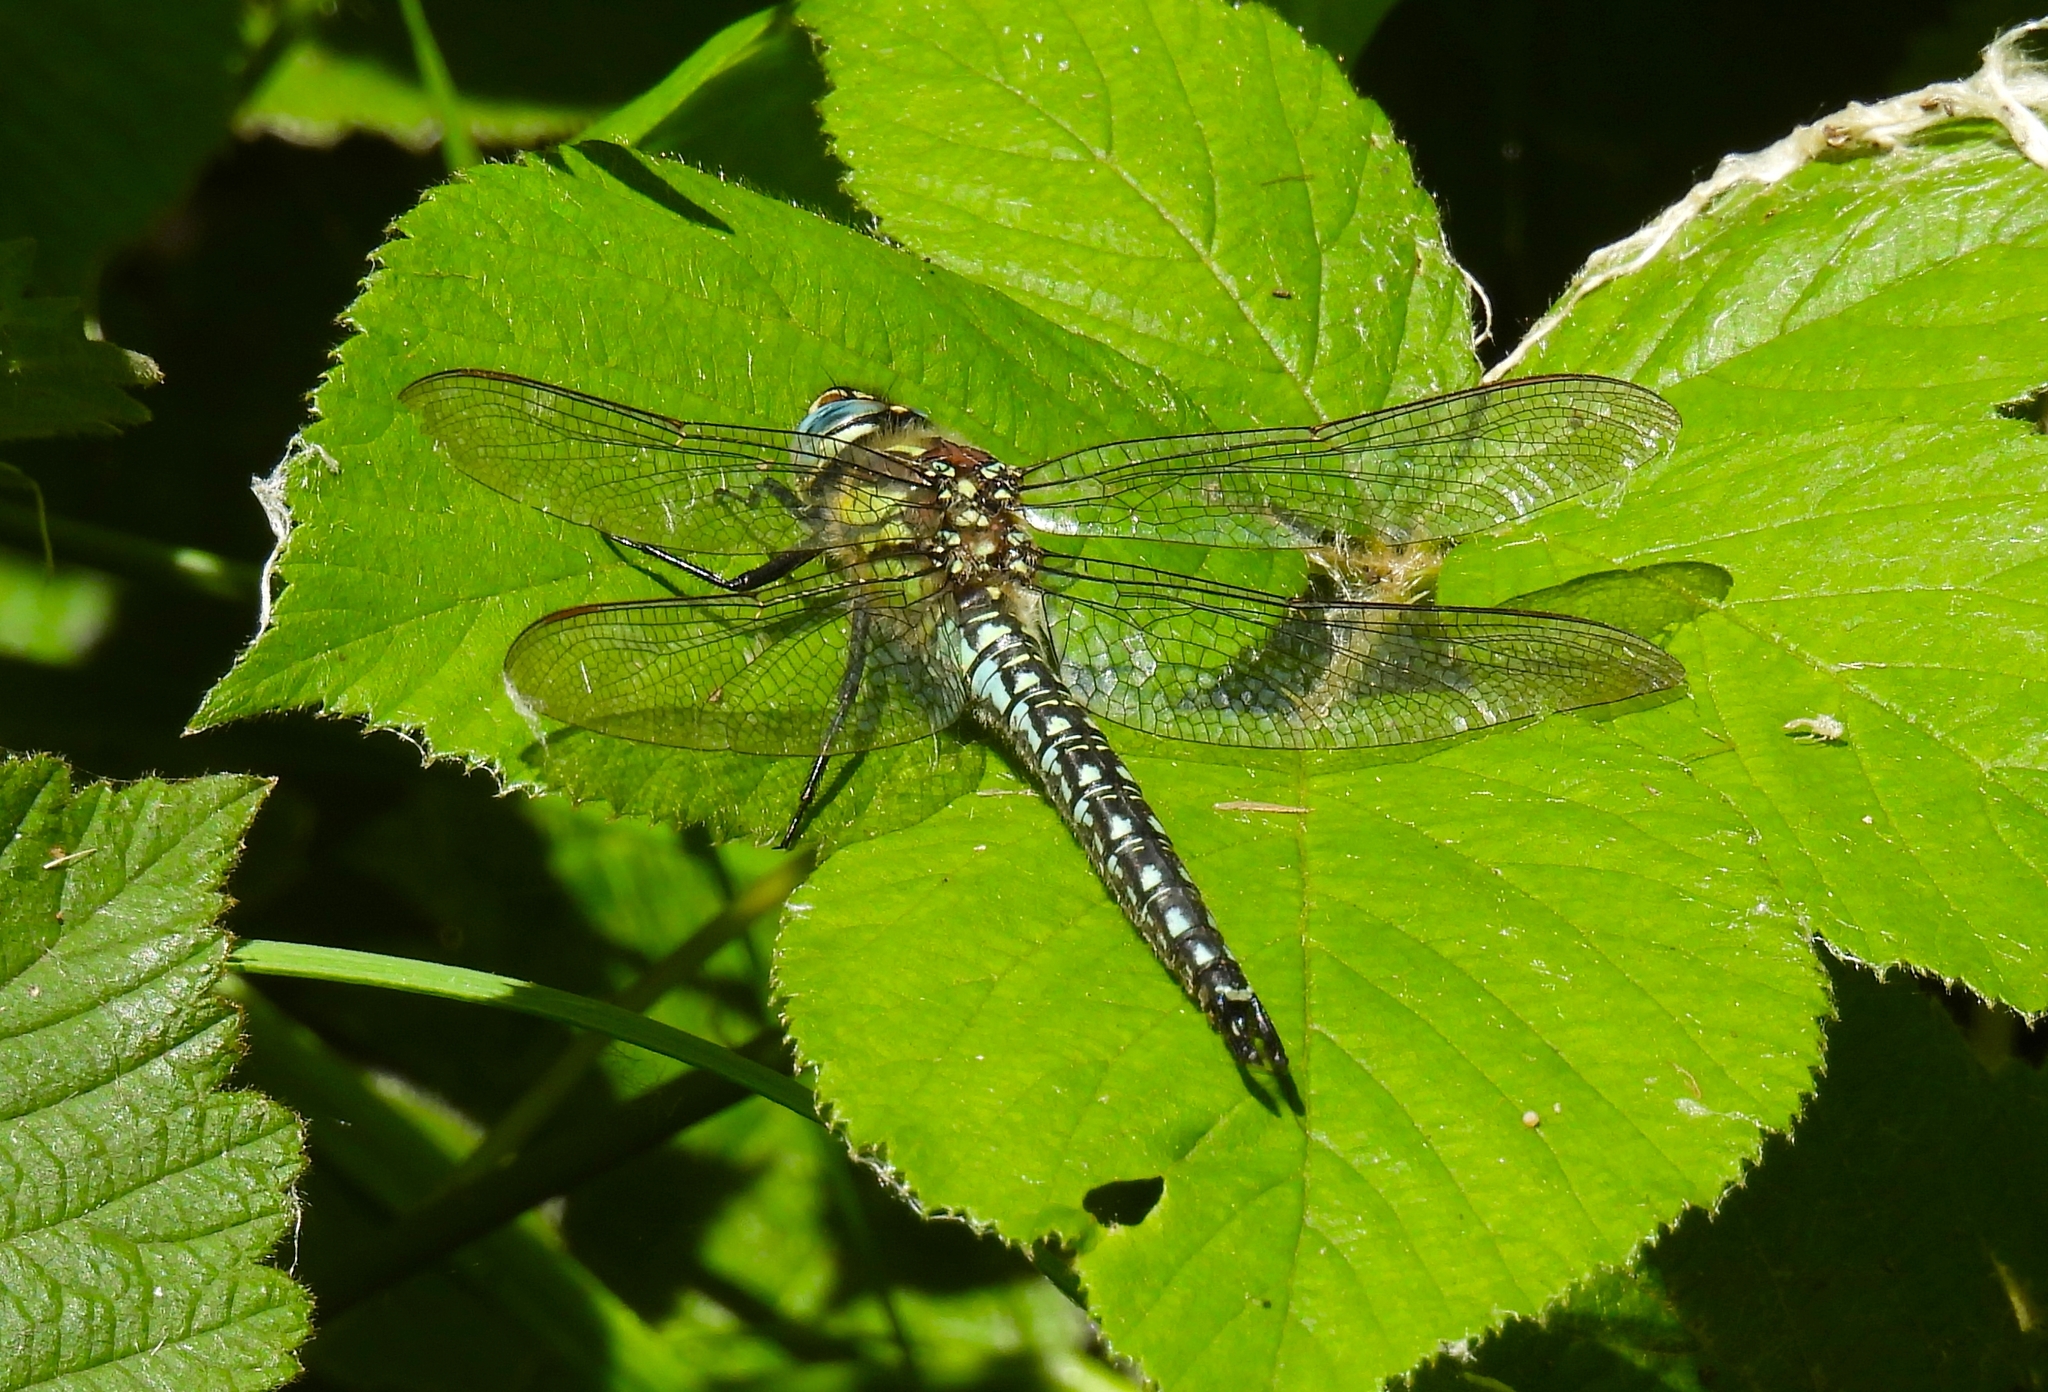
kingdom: Animalia
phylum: Arthropoda
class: Insecta
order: Odonata
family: Aeshnidae
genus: Brachytron
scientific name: Brachytron pratense
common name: Hairy hawker
